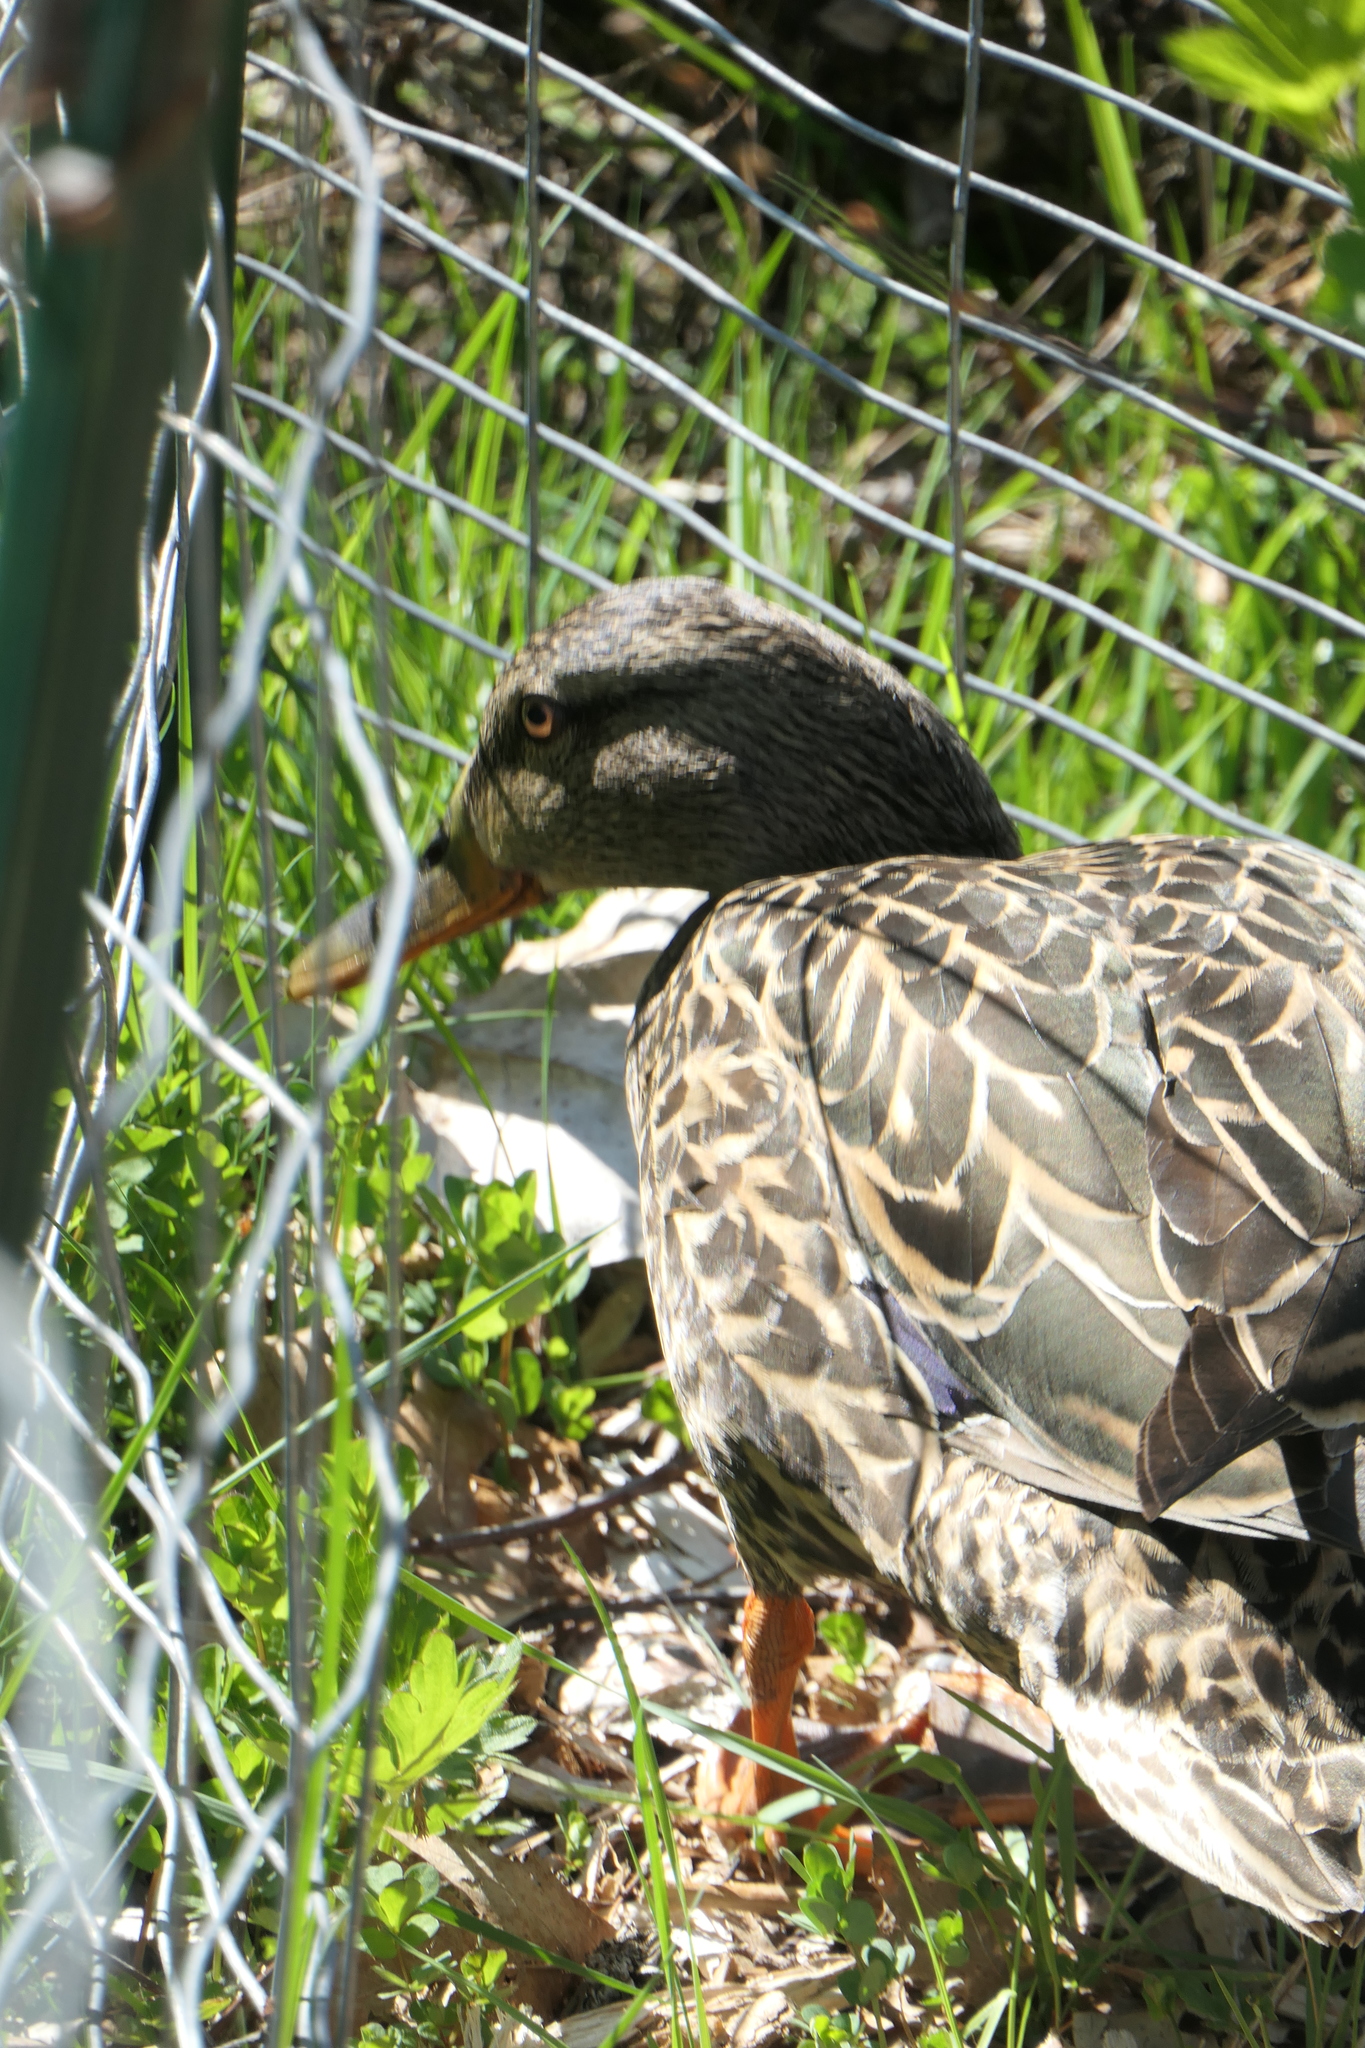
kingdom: Animalia
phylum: Chordata
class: Aves
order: Anseriformes
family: Anatidae
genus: Anas
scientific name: Anas platyrhynchos
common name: Mallard
